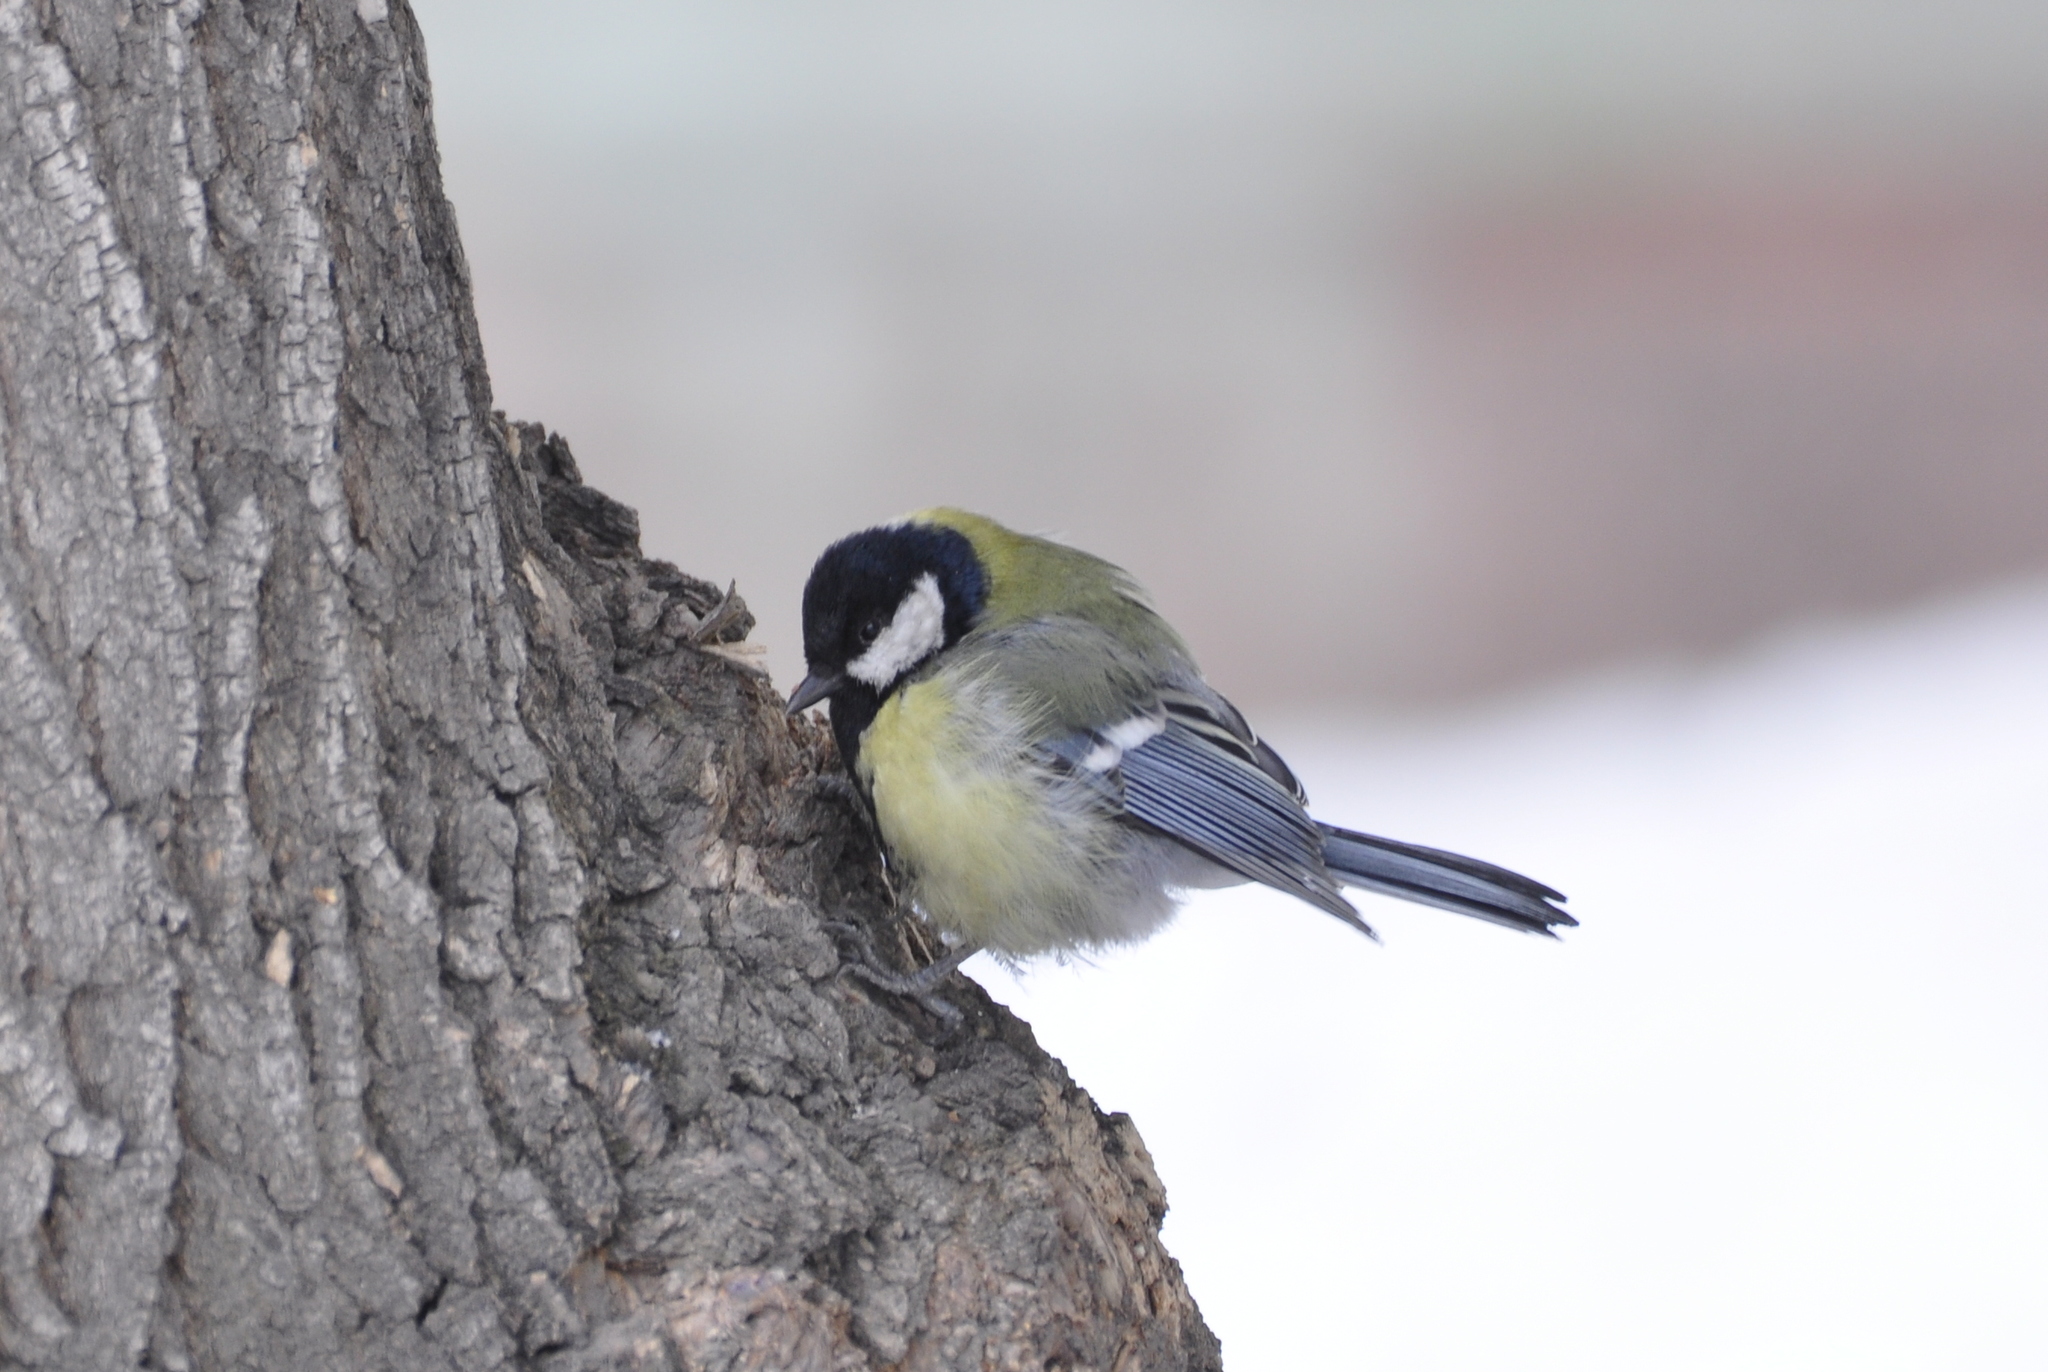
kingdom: Animalia
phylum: Chordata
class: Aves
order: Passeriformes
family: Paridae
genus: Parus
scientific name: Parus major
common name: Great tit
